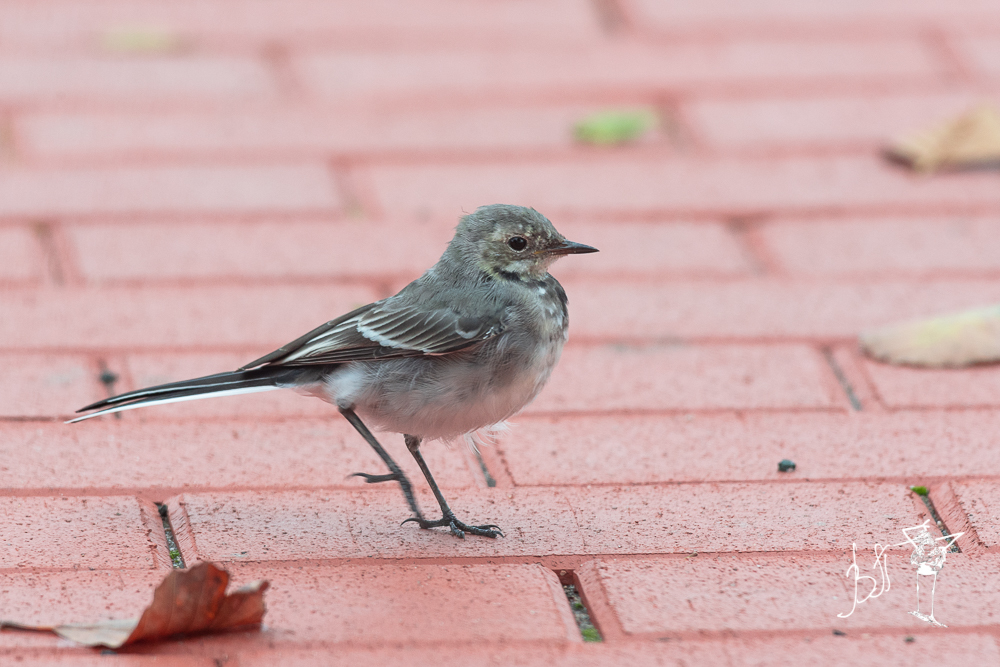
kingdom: Animalia
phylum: Chordata
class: Aves
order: Passeriformes
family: Motacillidae
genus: Motacilla
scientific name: Motacilla alba
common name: White wagtail
